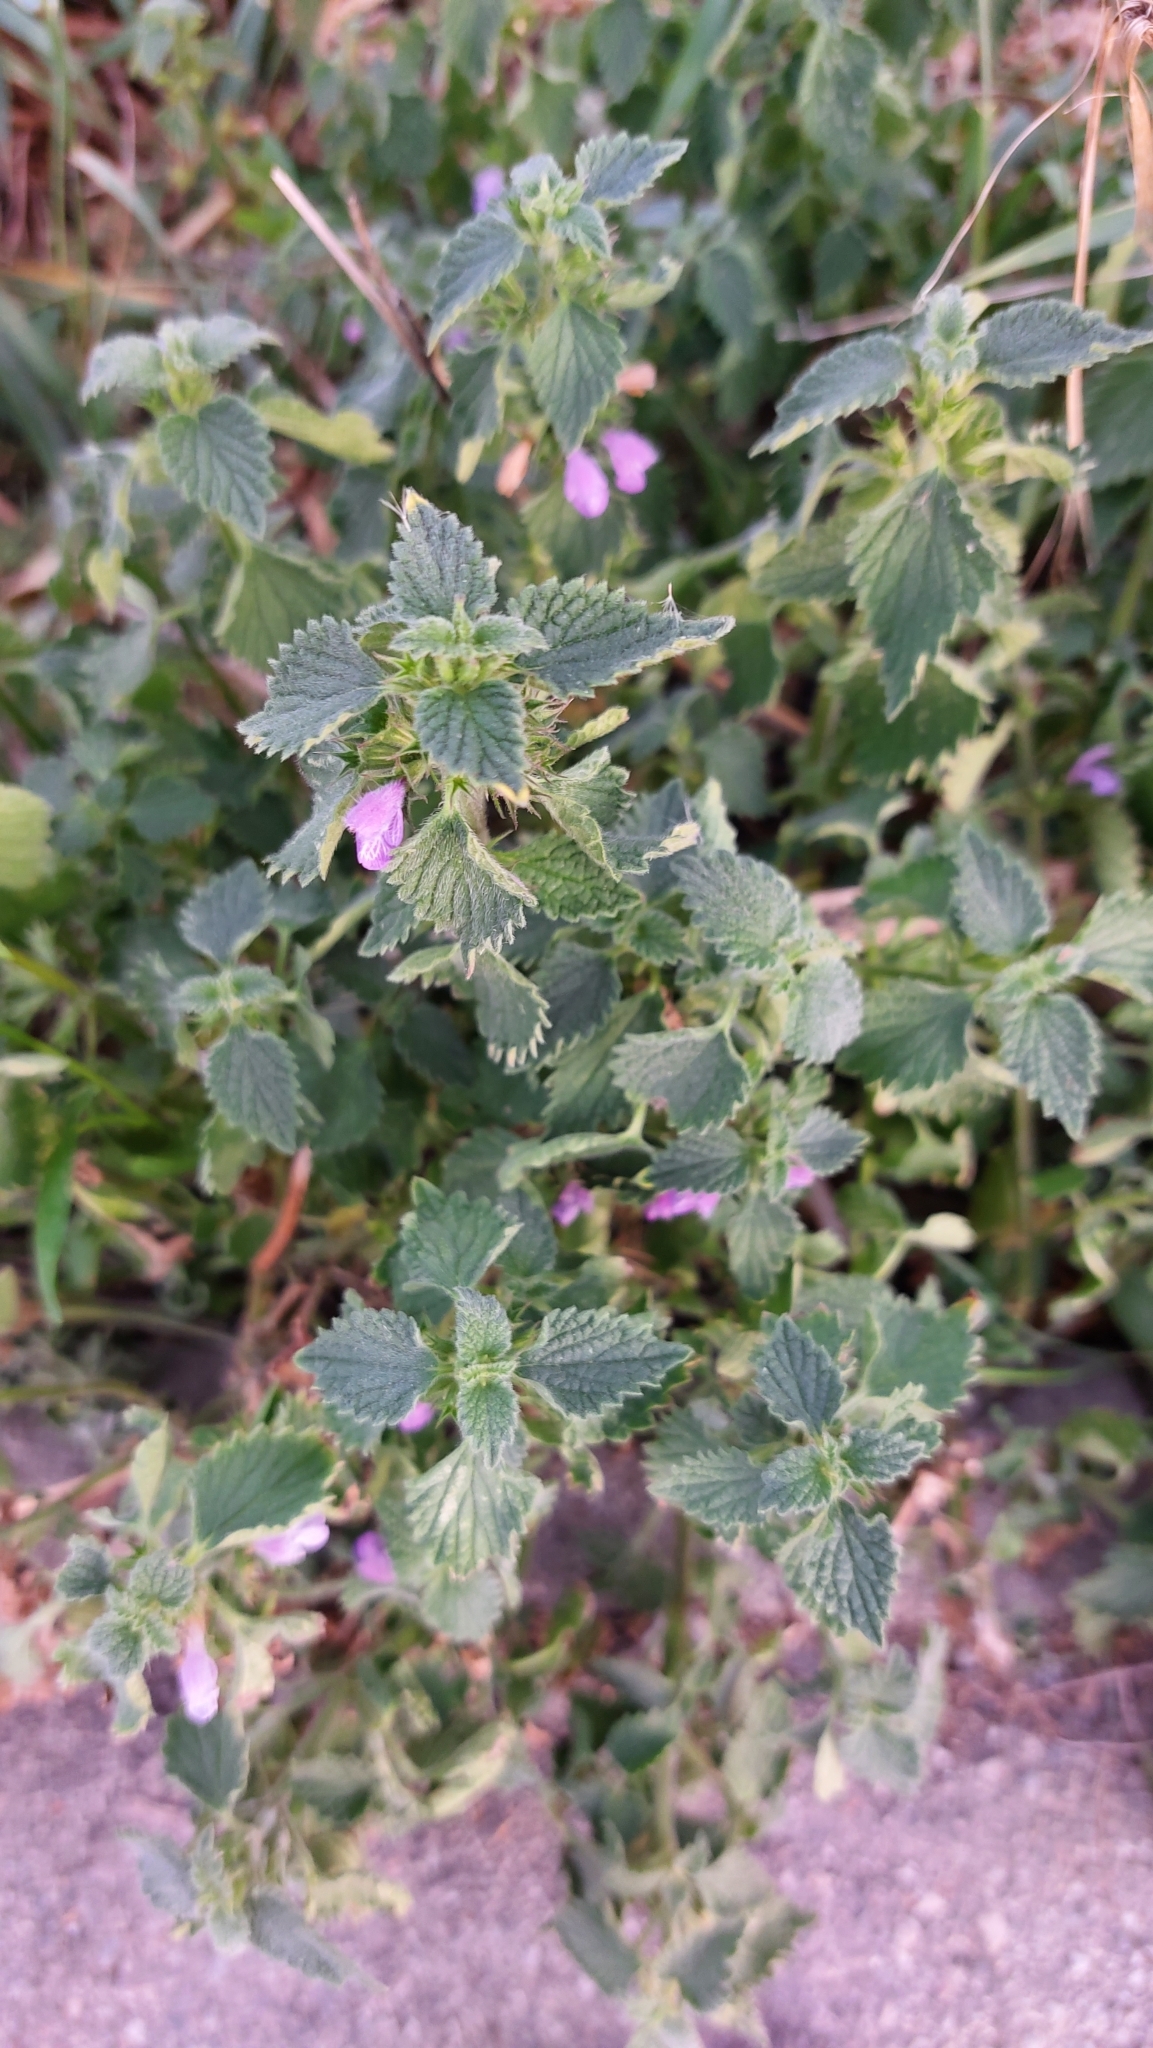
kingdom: Plantae
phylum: Tracheophyta
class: Magnoliopsida
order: Lamiales
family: Lamiaceae
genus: Ballota
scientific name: Ballota nigra
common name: Black horehound
